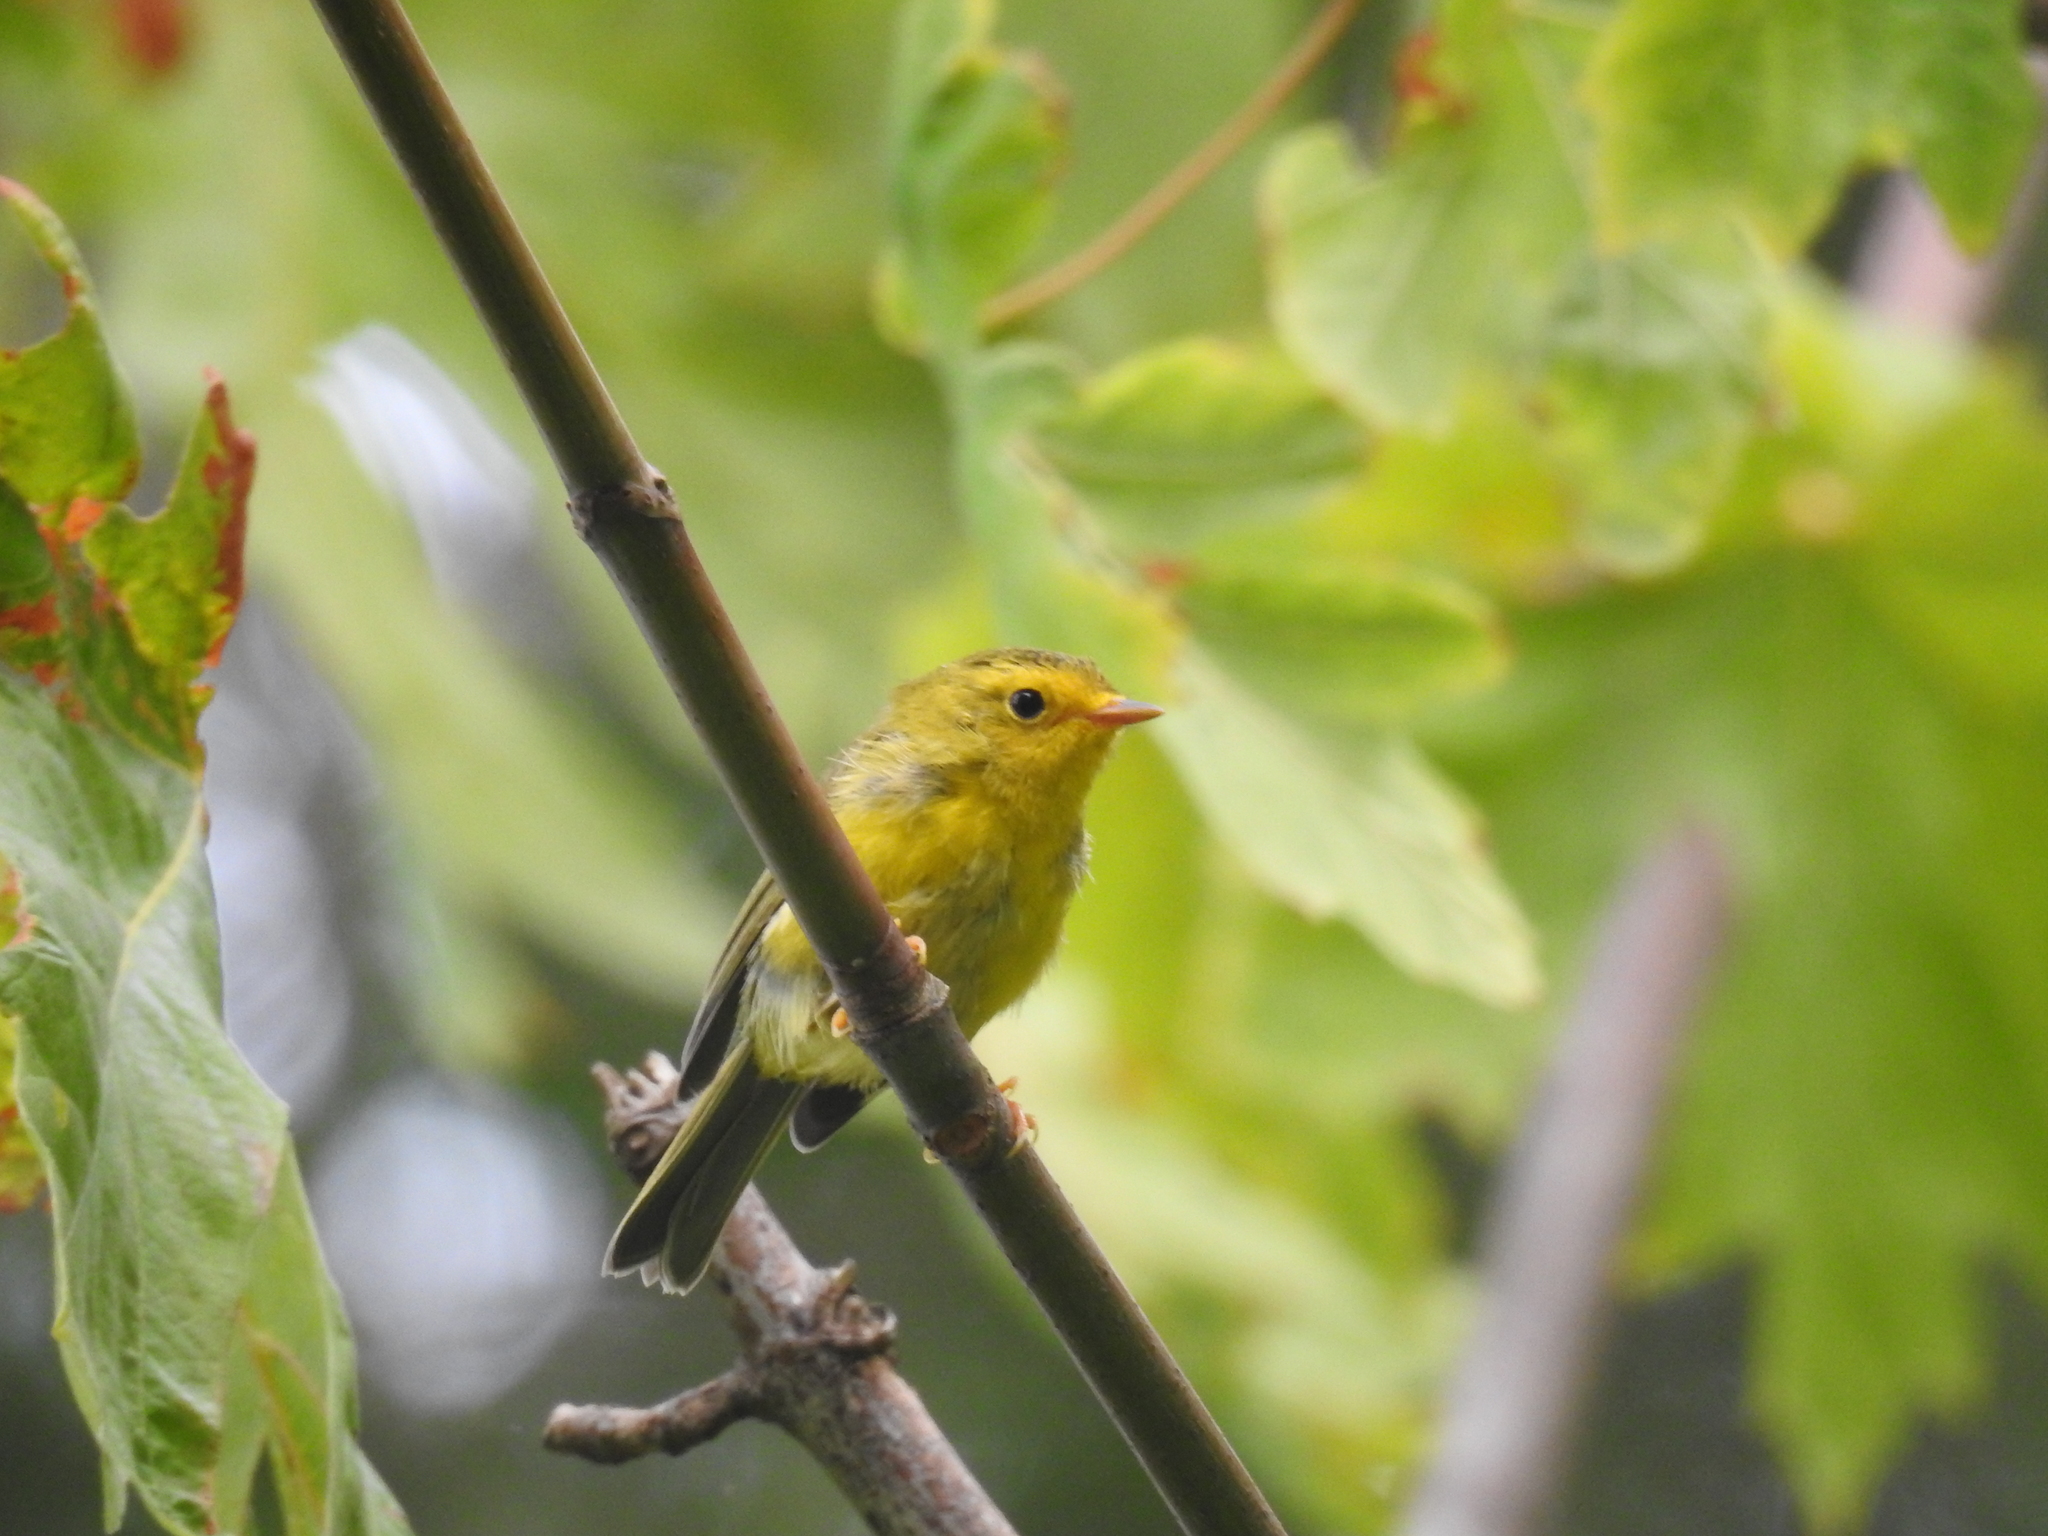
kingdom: Animalia
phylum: Chordata
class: Aves
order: Passeriformes
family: Parulidae
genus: Cardellina
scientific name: Cardellina pusilla
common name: Wilson's warbler
